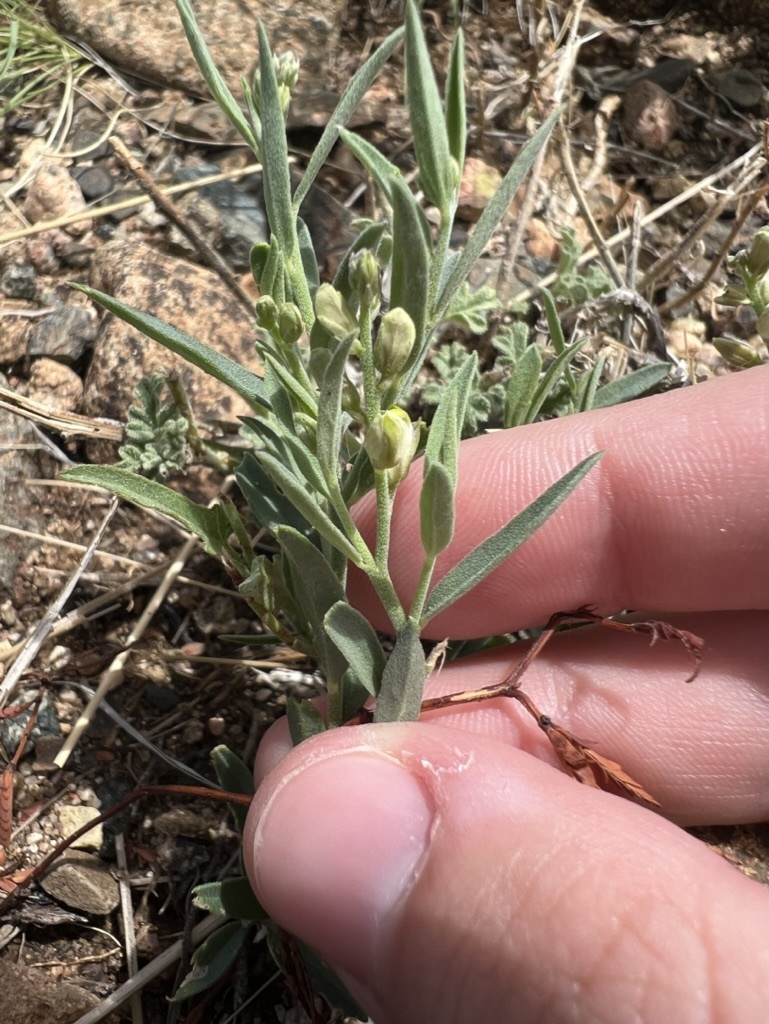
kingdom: Plantae
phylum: Tracheophyta
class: Magnoliopsida
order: Fabales
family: Polygalaceae
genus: Hebecarpa
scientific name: Hebecarpa obscura
